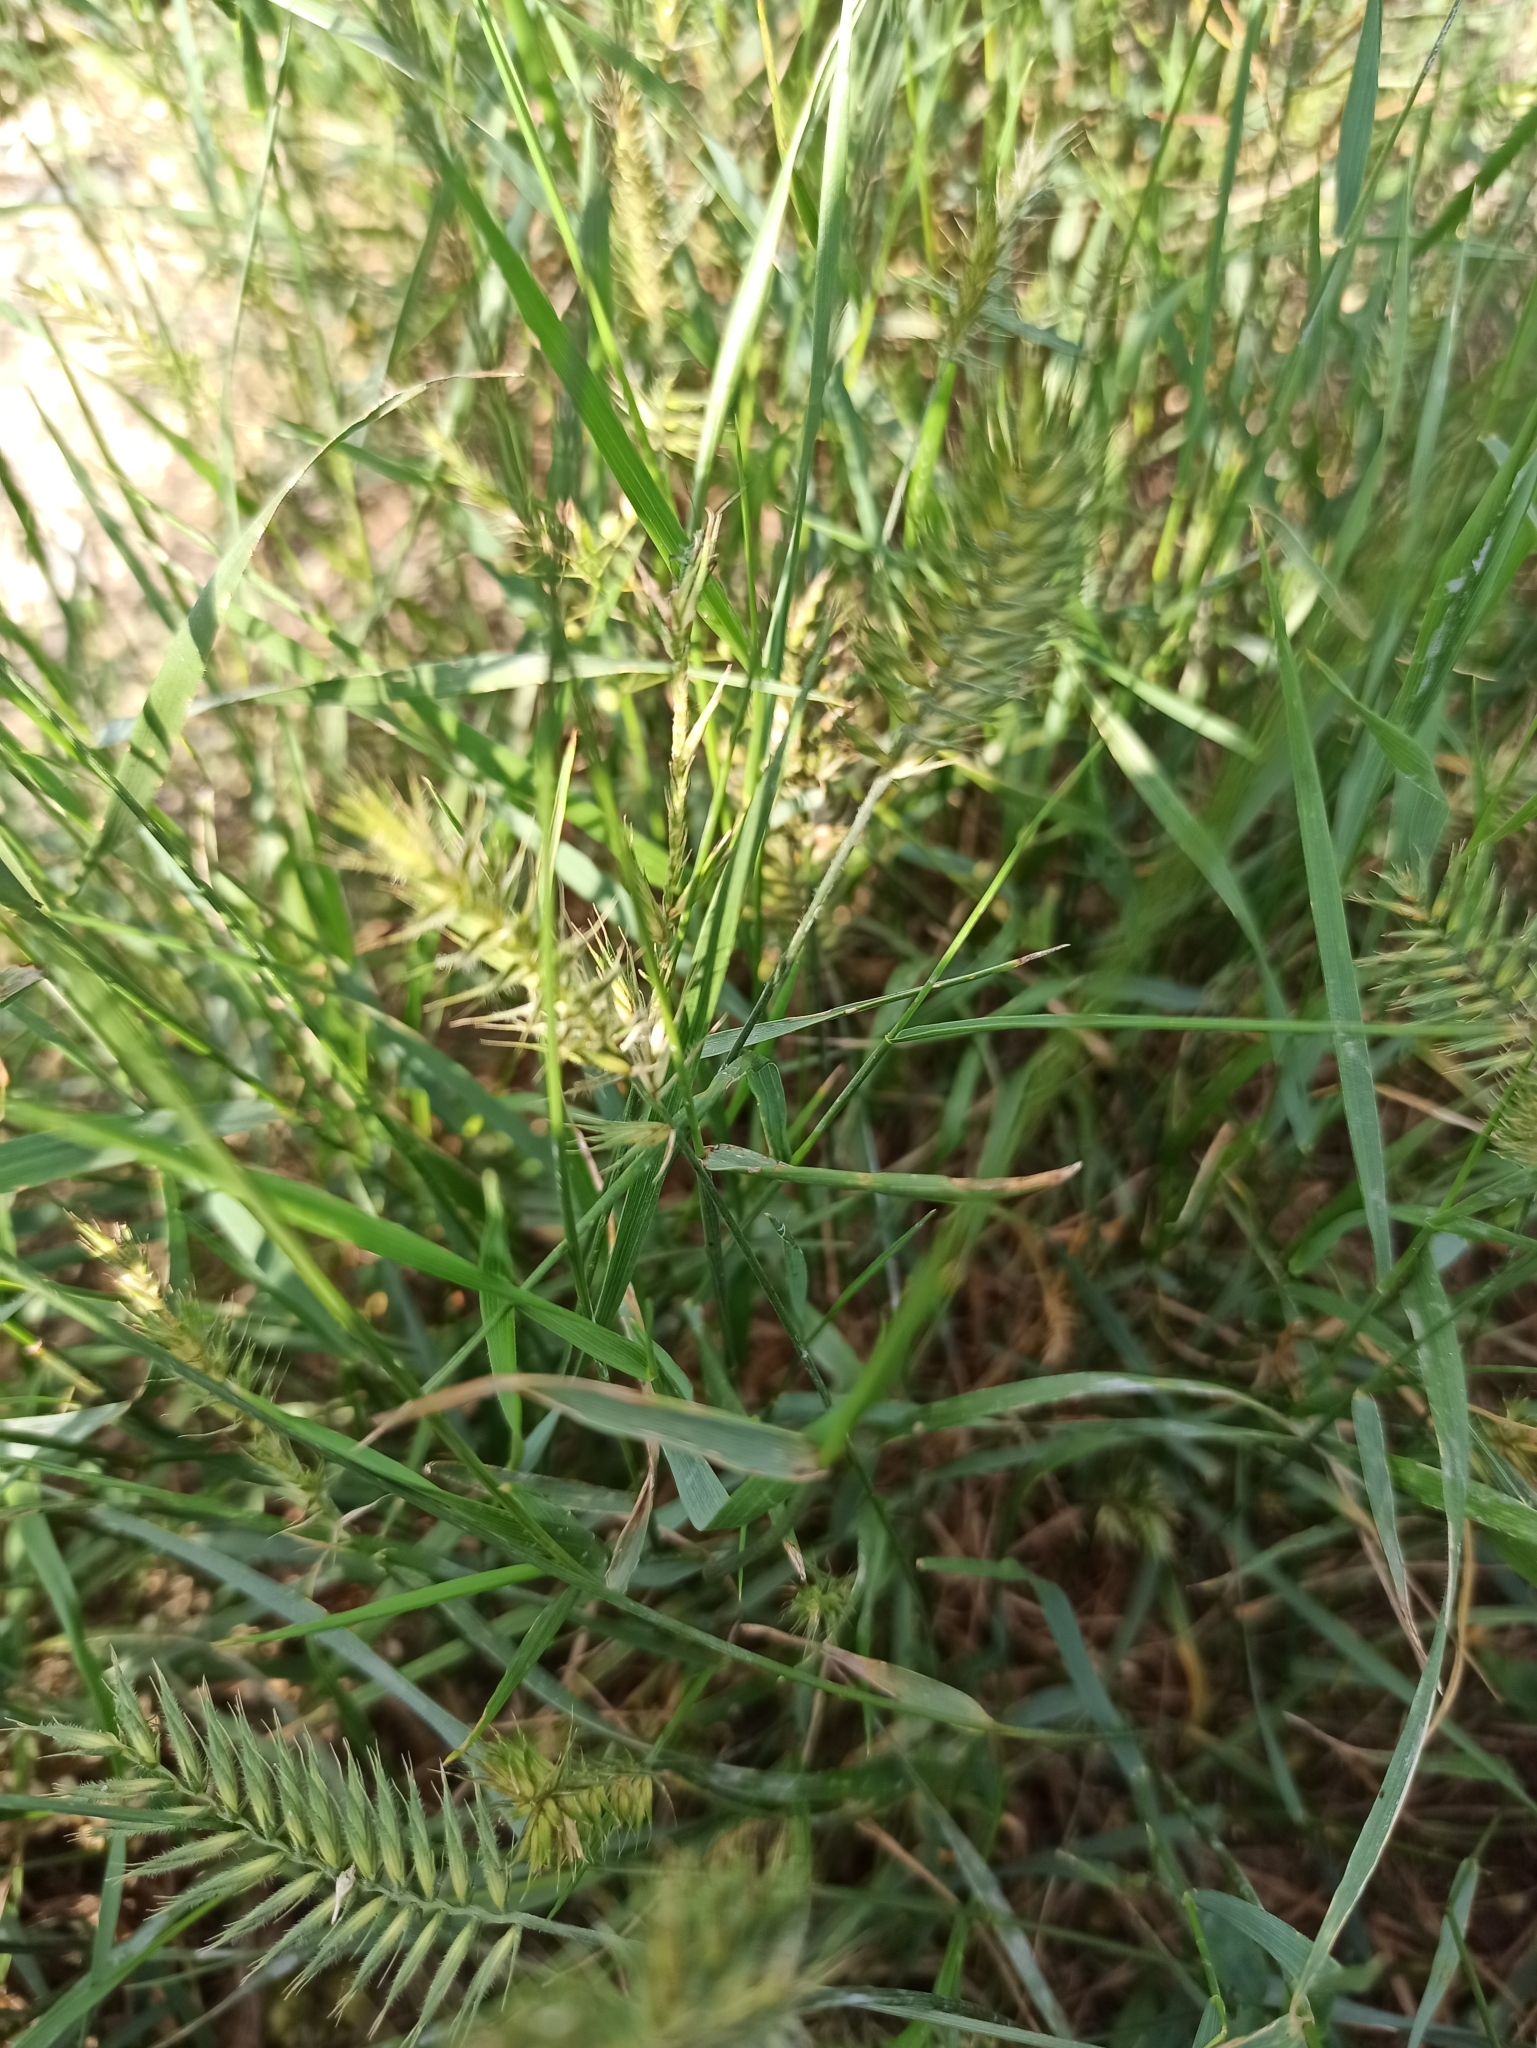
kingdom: Plantae
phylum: Tracheophyta
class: Liliopsida
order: Poales
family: Poaceae
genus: Agropyron
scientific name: Agropyron cristatum
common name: Crested wheatgrass
